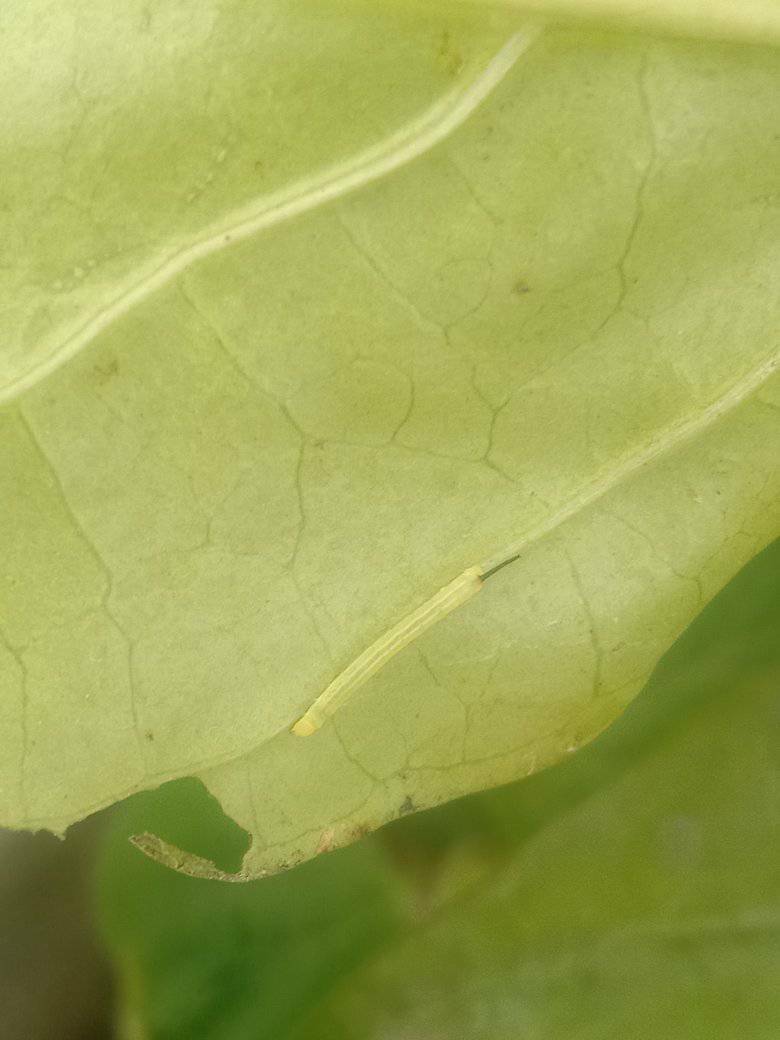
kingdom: Animalia
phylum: Arthropoda
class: Insecta
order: Lepidoptera
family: Sphingidae
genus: Macroglossum
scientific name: Macroglossum sitiene
